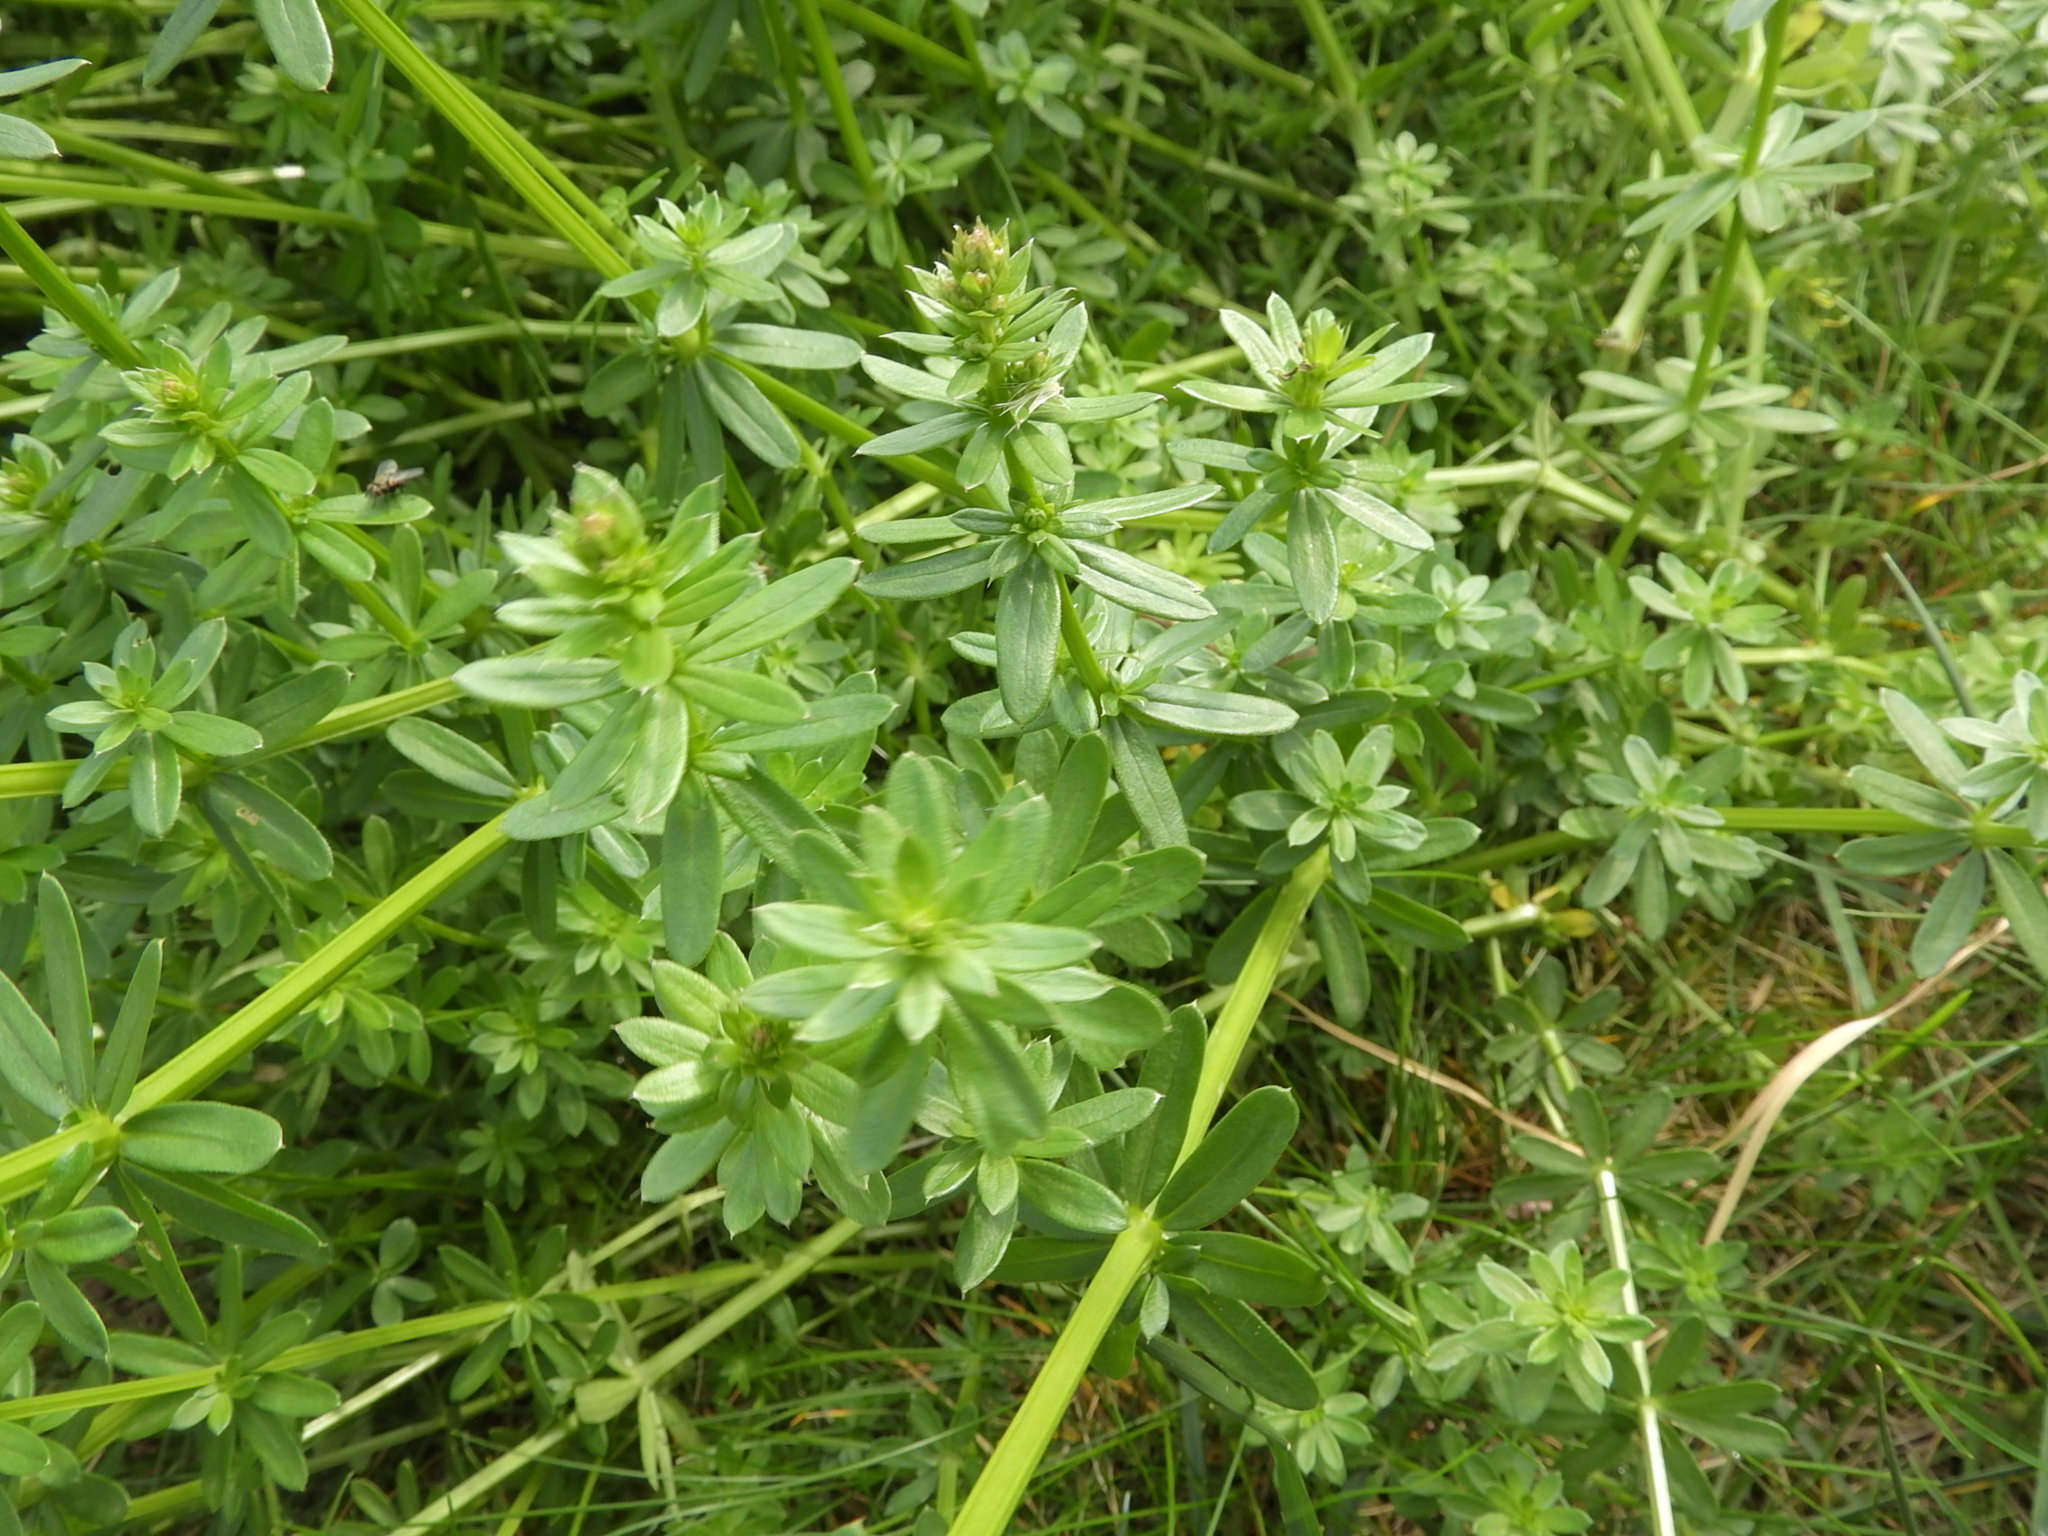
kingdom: Plantae
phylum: Tracheophyta
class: Magnoliopsida
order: Gentianales
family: Rubiaceae
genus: Galium
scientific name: Galium album
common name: White bedstraw
